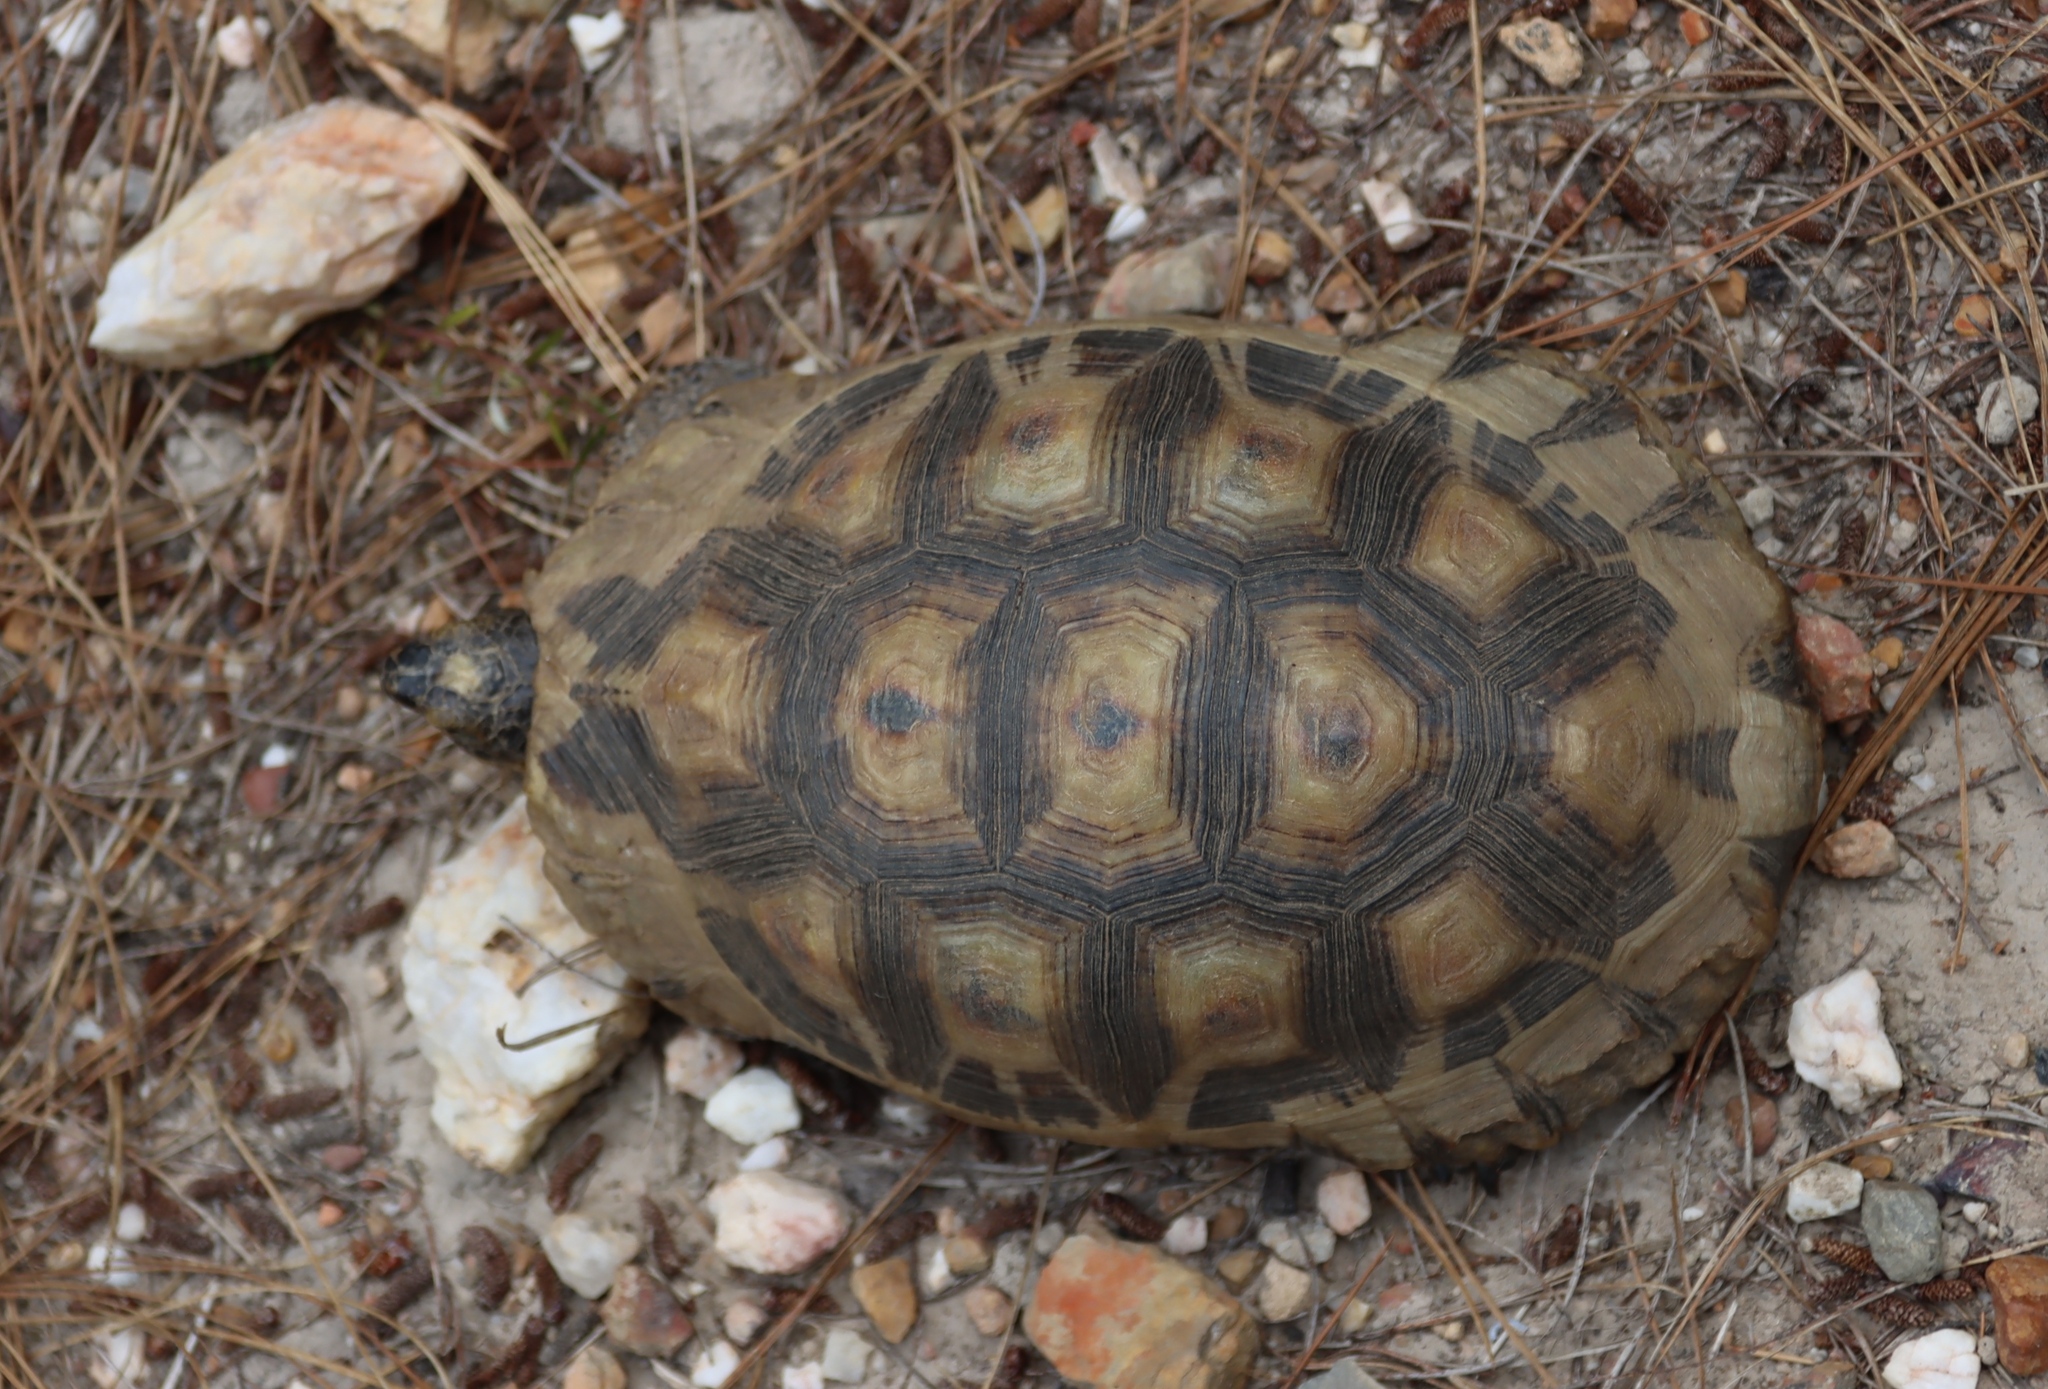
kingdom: Animalia
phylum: Chordata
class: Testudines
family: Testudinidae
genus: Chersina
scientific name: Chersina angulata
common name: South african bowsprit tortoise
